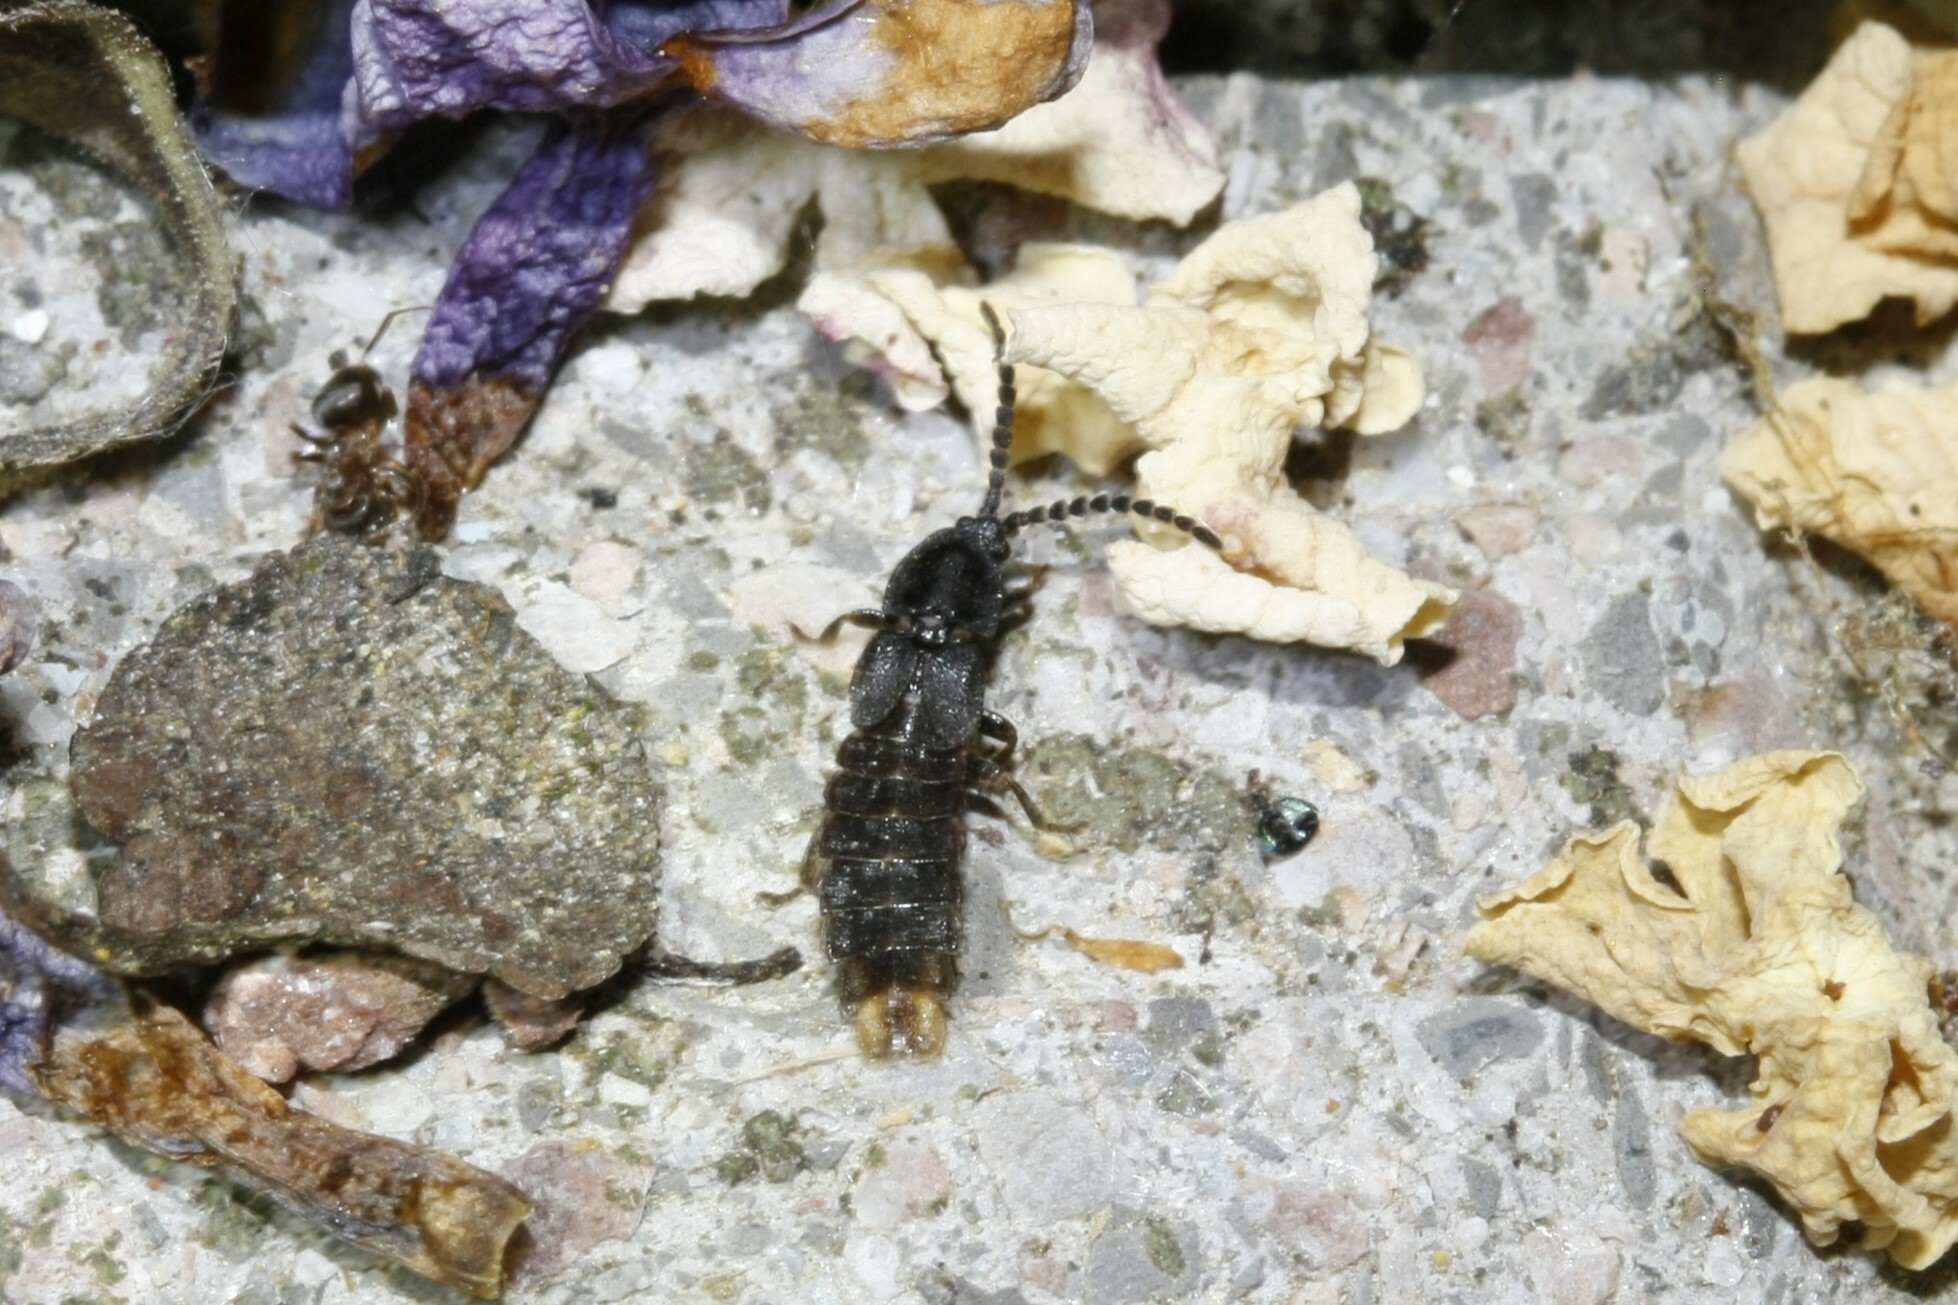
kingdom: Animalia
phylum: Arthropoda
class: Insecta
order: Coleoptera
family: Lampyridae
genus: Phosphaenus
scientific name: Phosphaenus hemipterus
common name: Short-winged firefly
